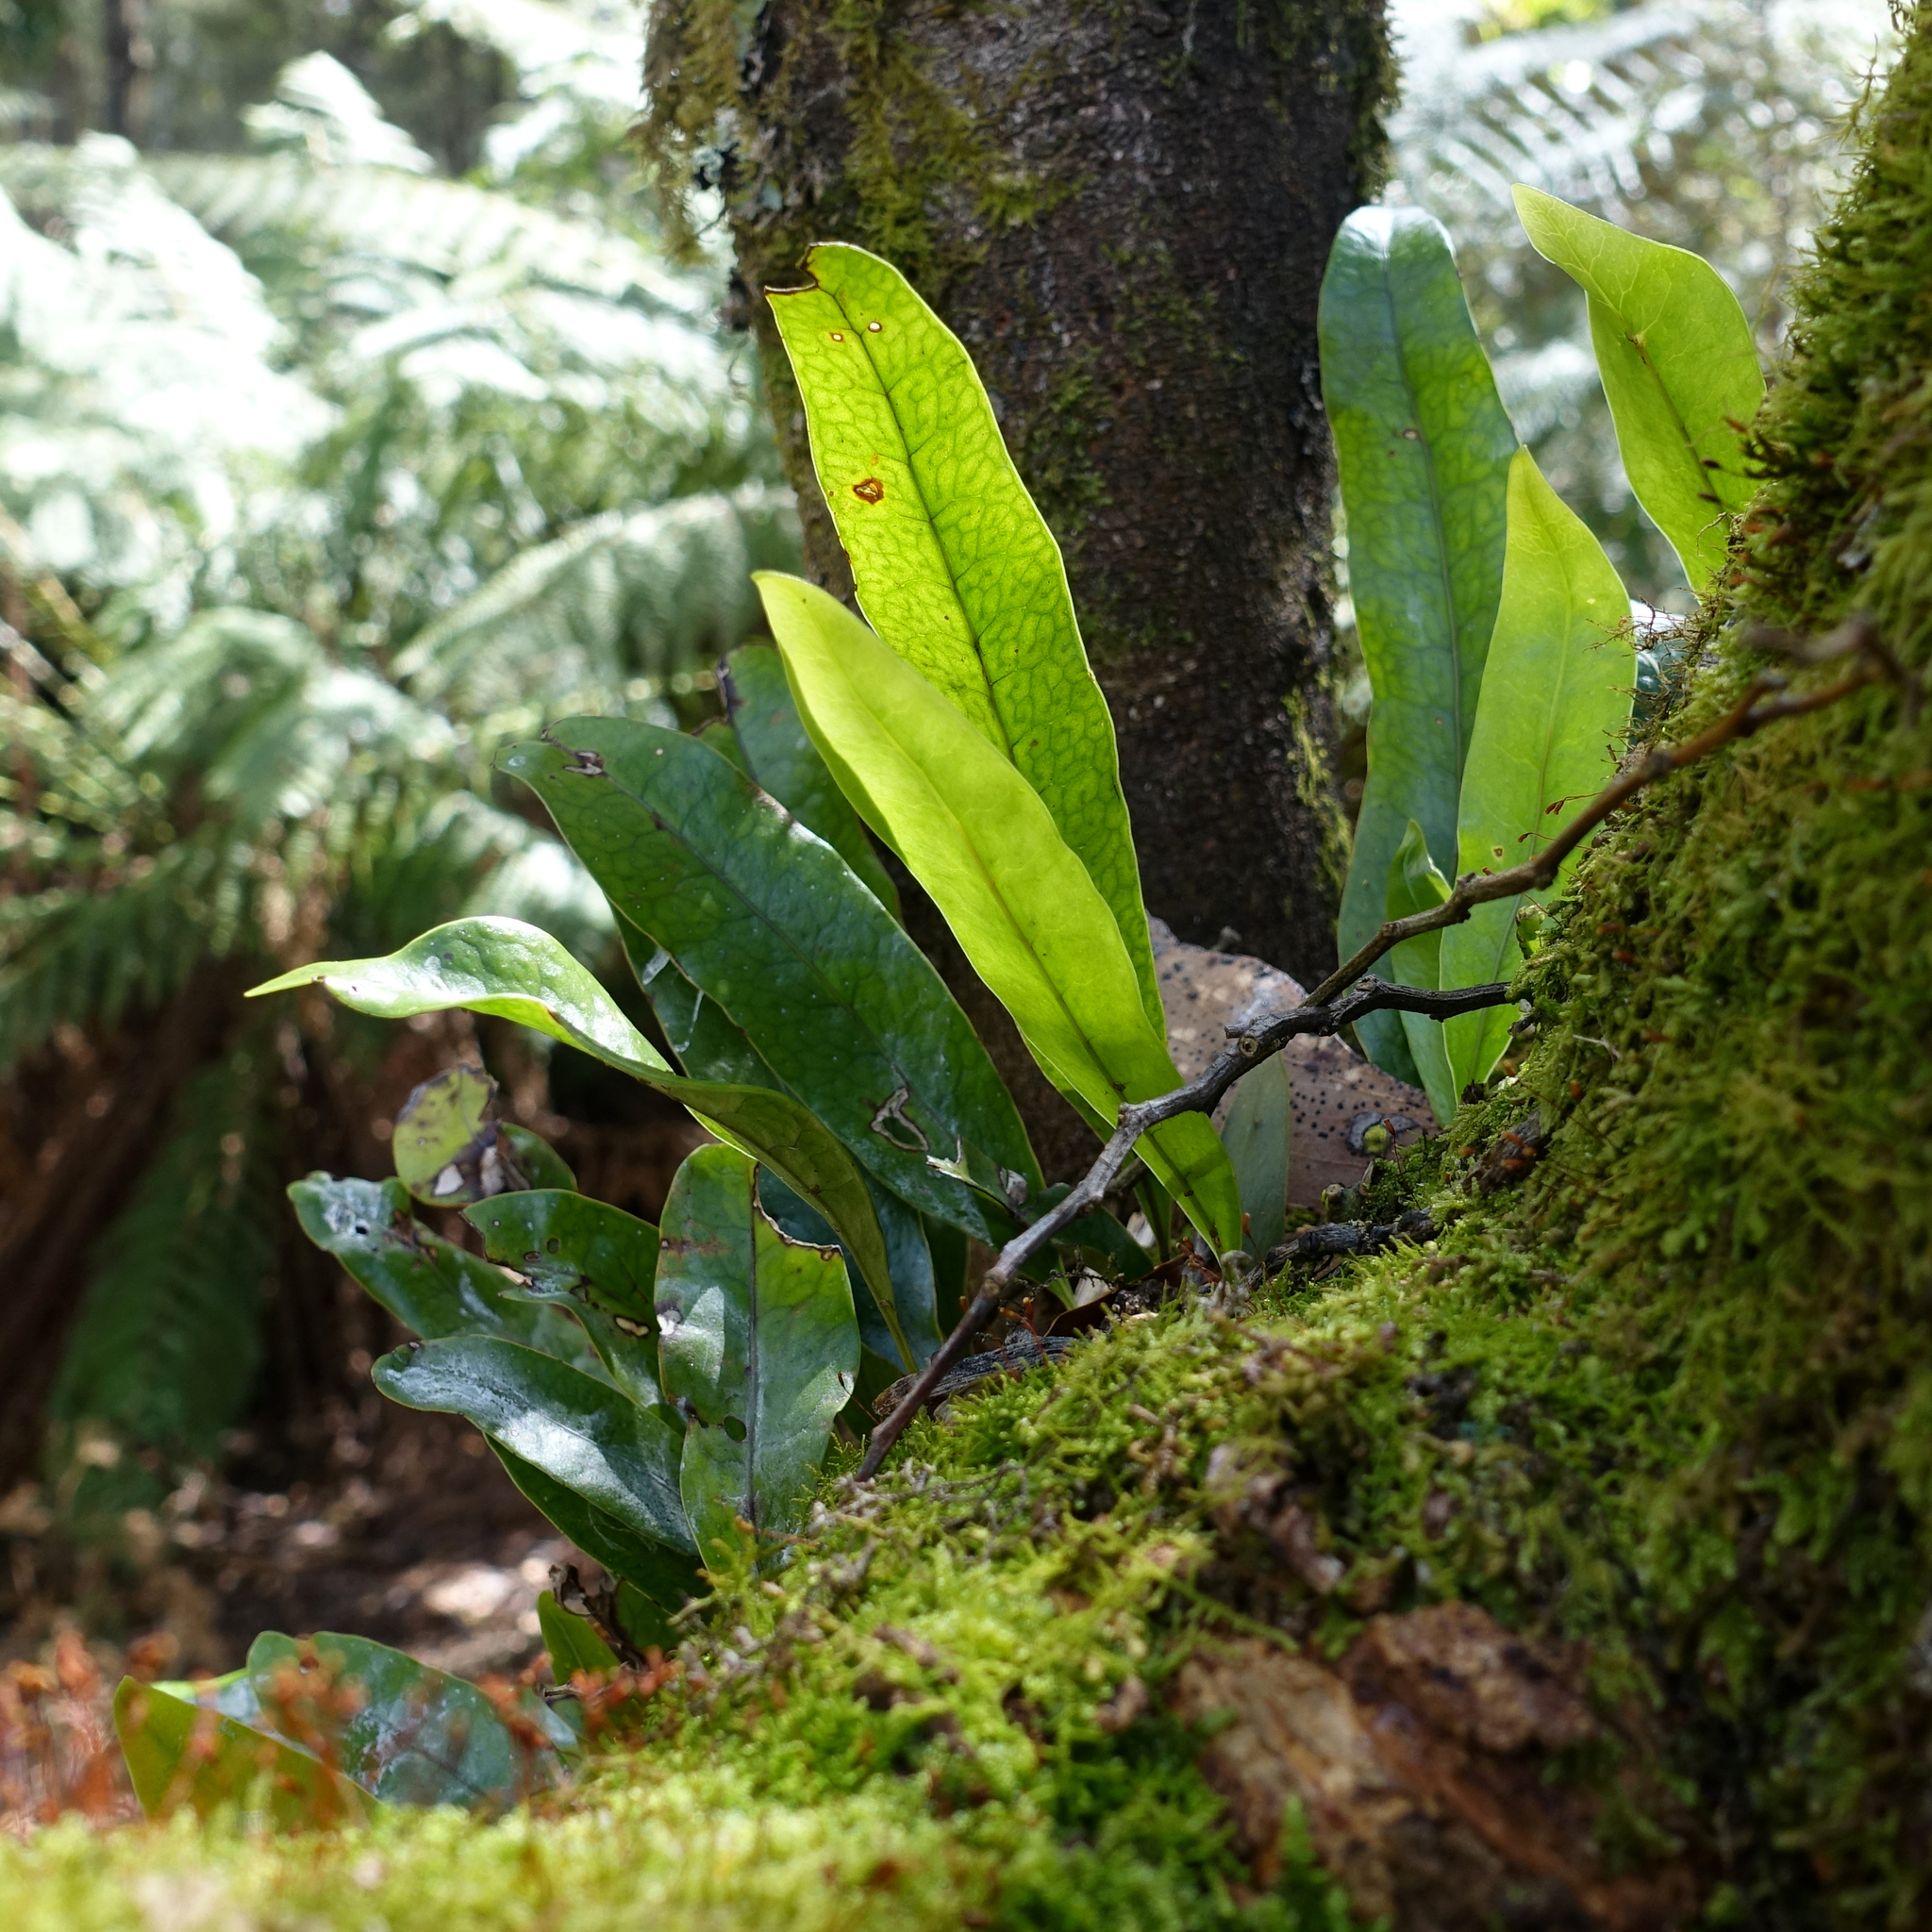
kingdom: Plantae
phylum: Tracheophyta
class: Polypodiopsida
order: Polypodiales
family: Polypodiaceae
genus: Lecanopteris
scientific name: Lecanopteris pustulata
